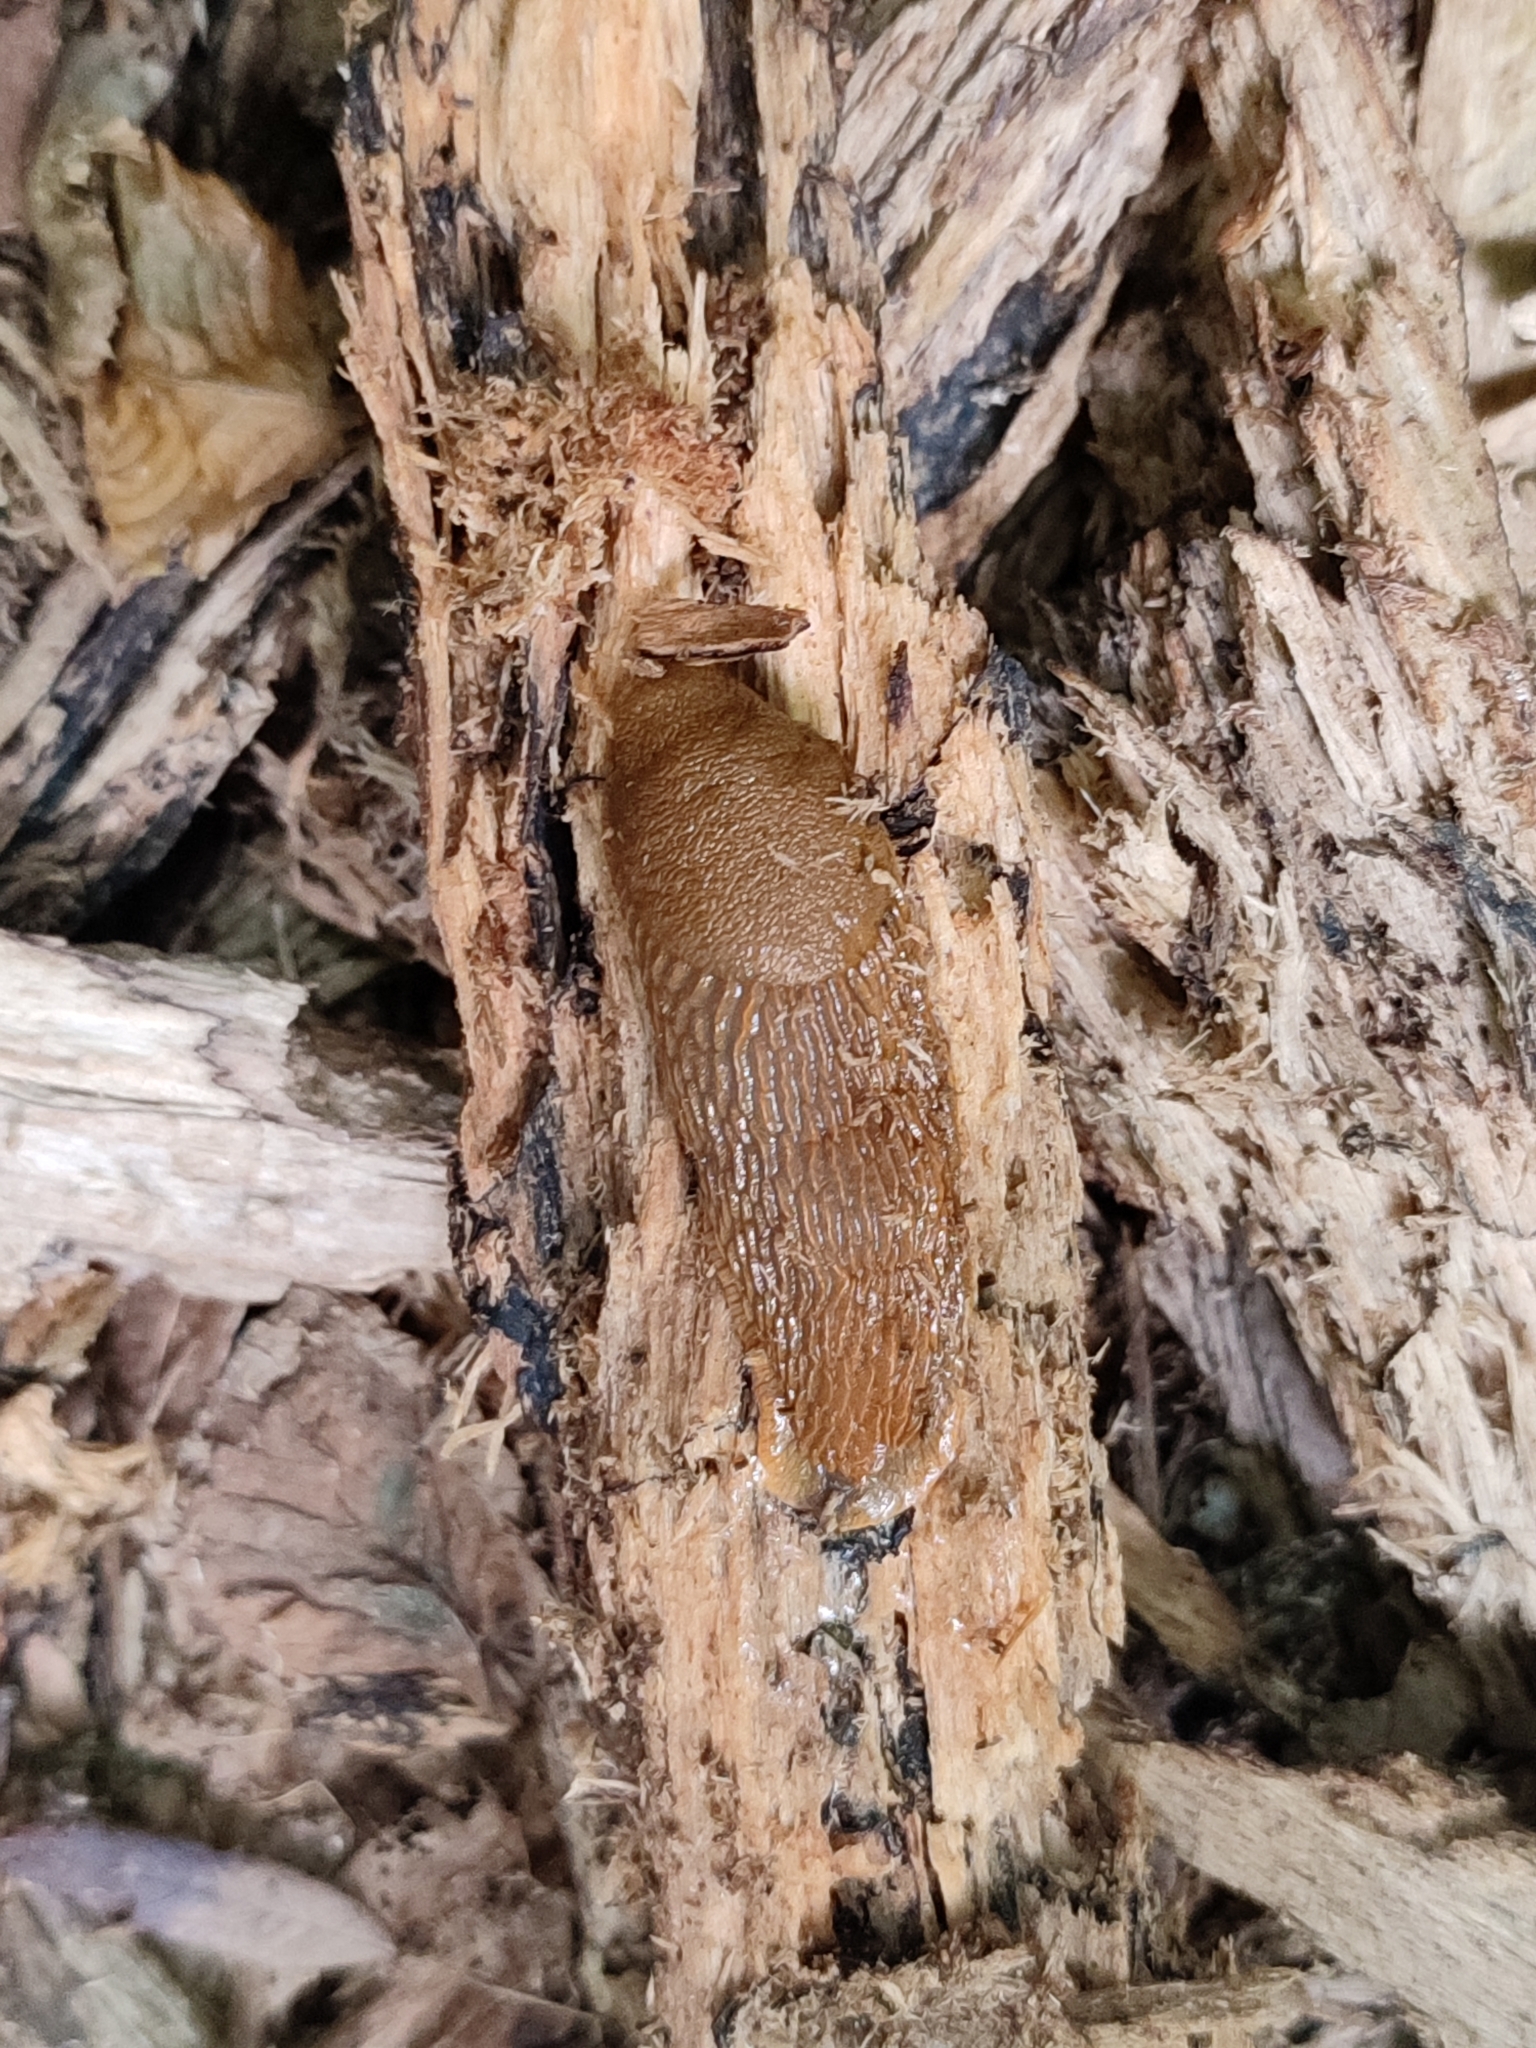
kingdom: Animalia
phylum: Mollusca
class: Gastropoda
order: Stylommatophora
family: Arionidae
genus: Arion
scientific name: Arion vulgaris
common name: Lusitanian slug
